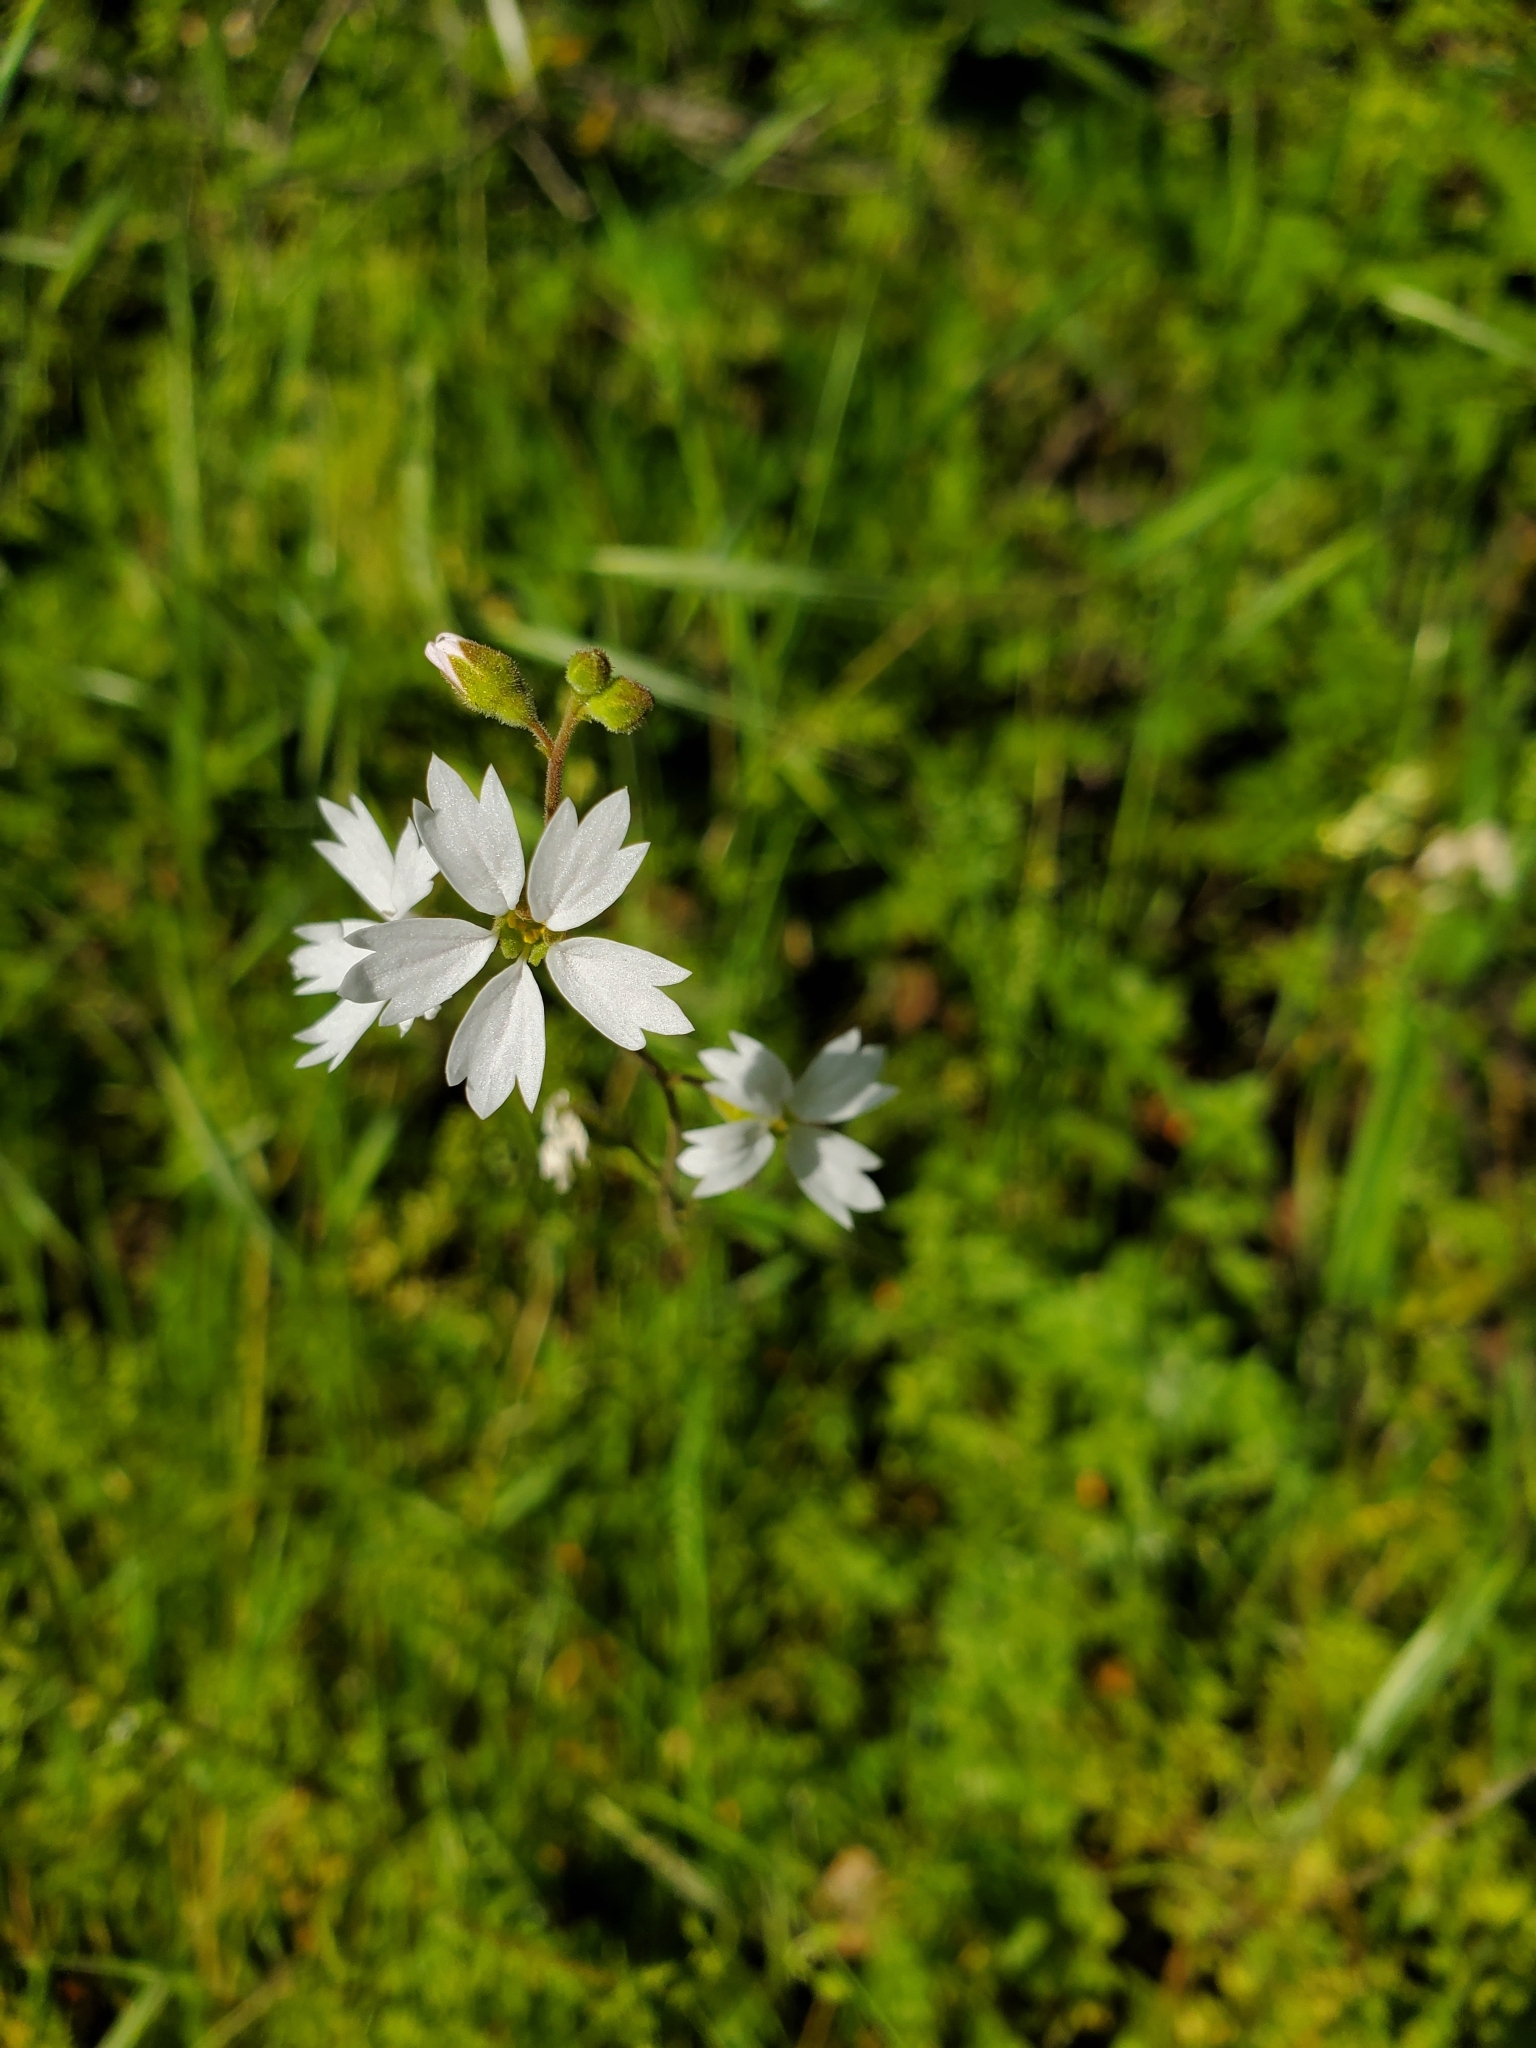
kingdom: Plantae
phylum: Tracheophyta
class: Magnoliopsida
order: Saxifragales
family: Saxifragaceae
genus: Lithophragma
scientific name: Lithophragma affine
